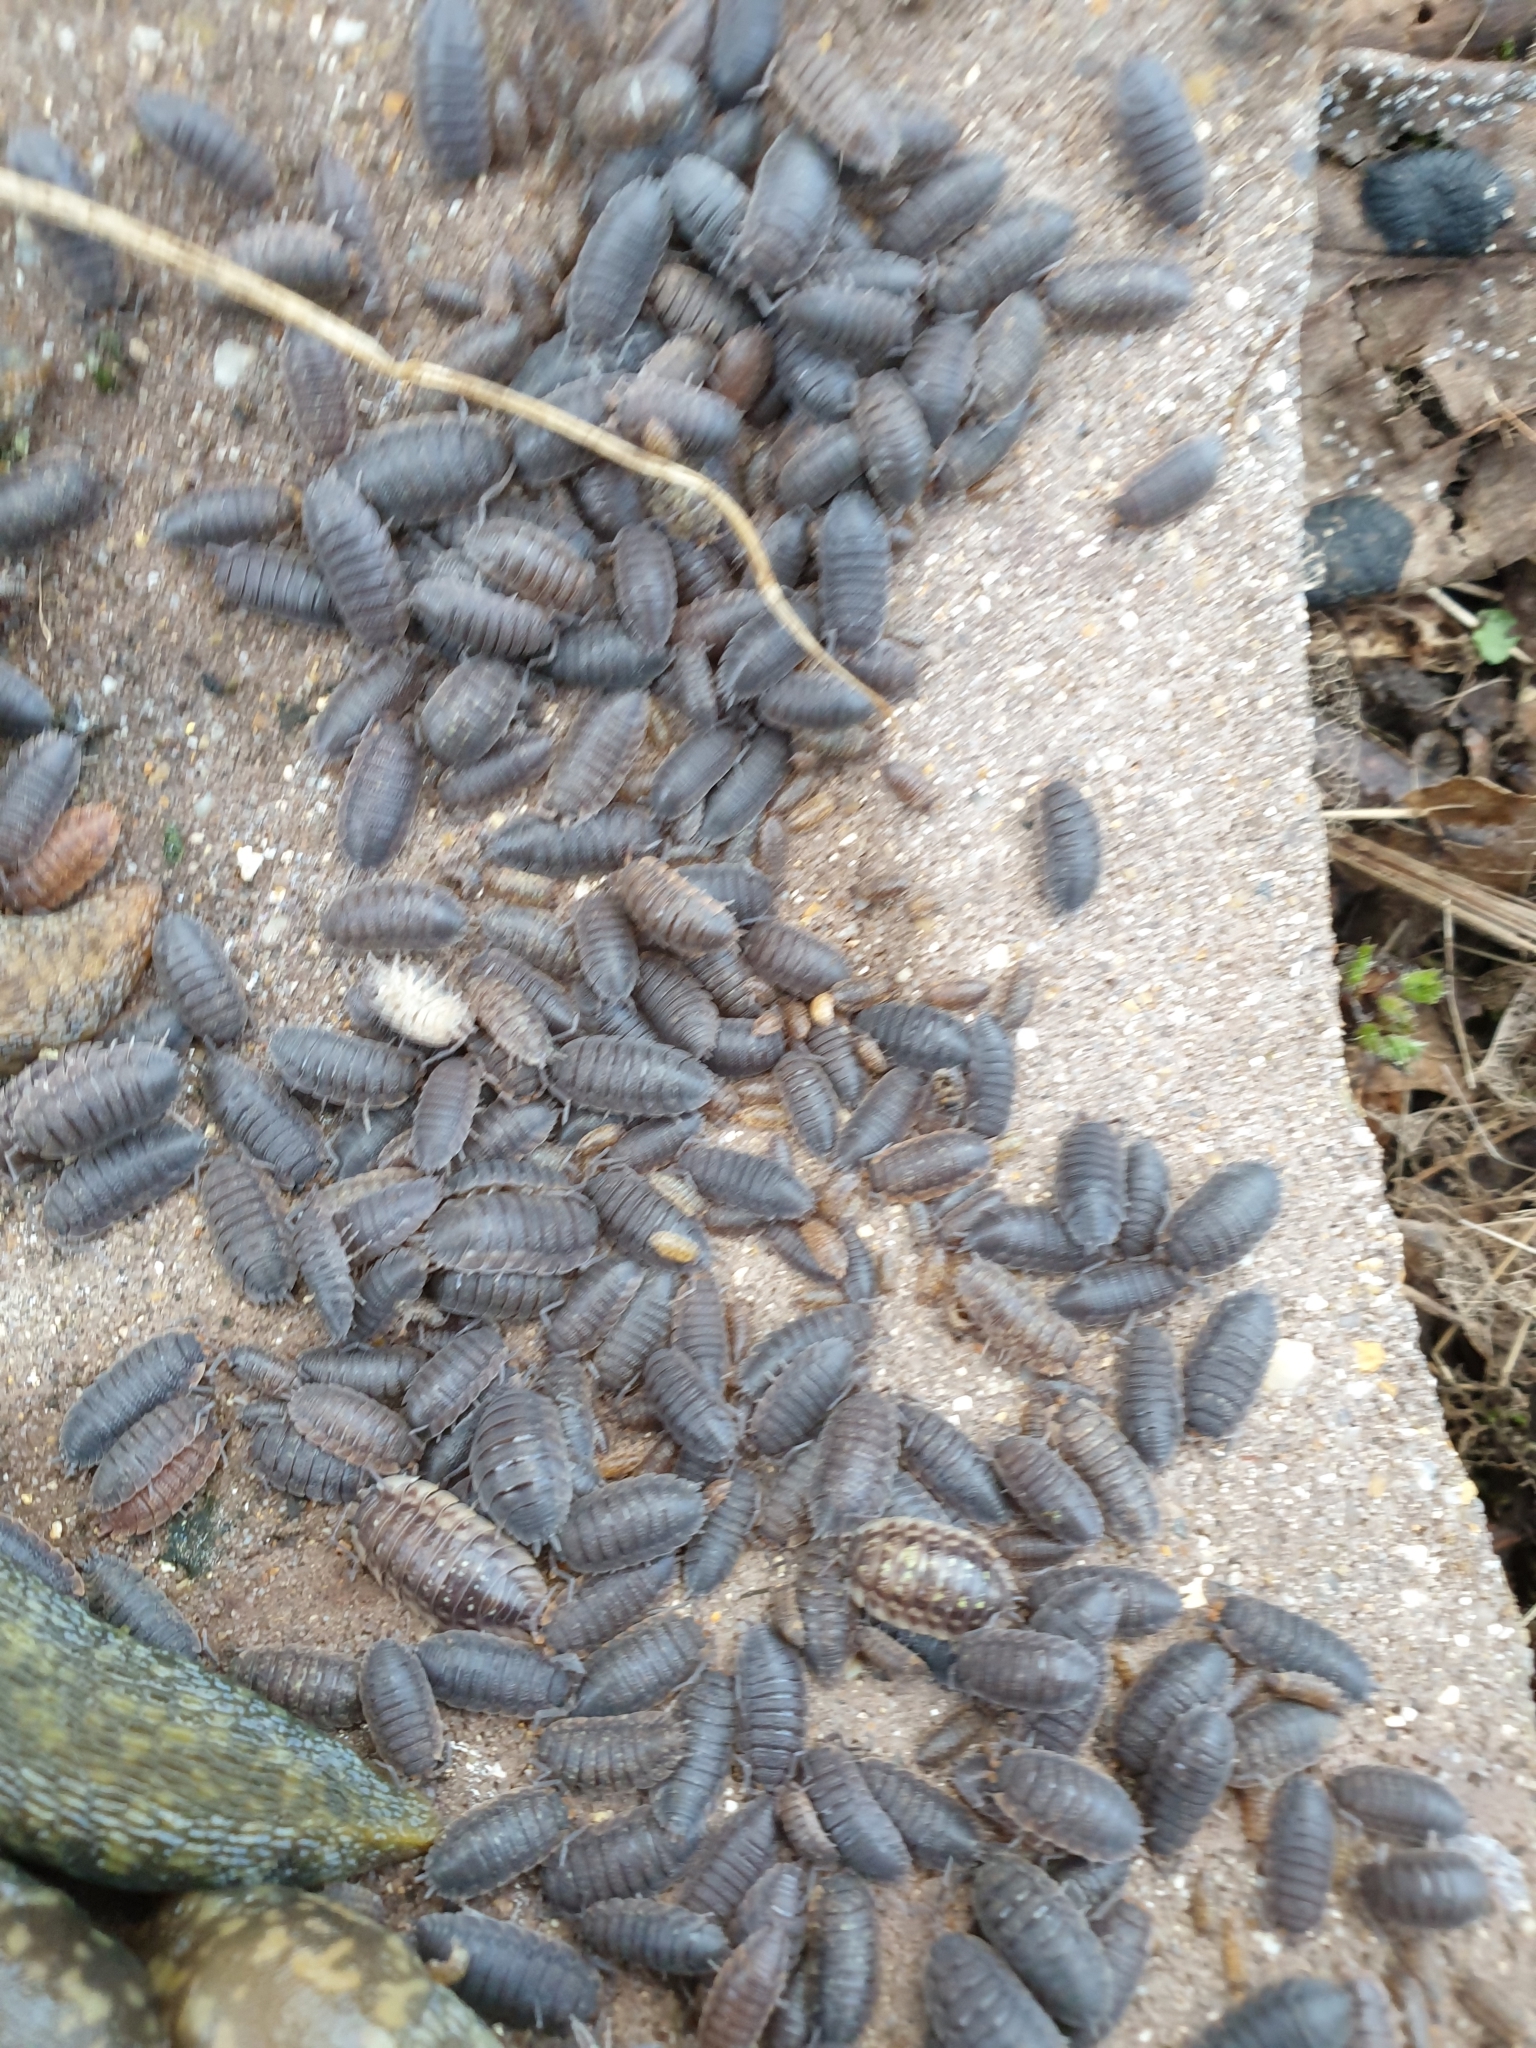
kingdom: Animalia
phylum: Arthropoda
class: Malacostraca
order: Isopoda
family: Porcellionidae
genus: Porcellio
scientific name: Porcellio scaber
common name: Common rough woodlouse
